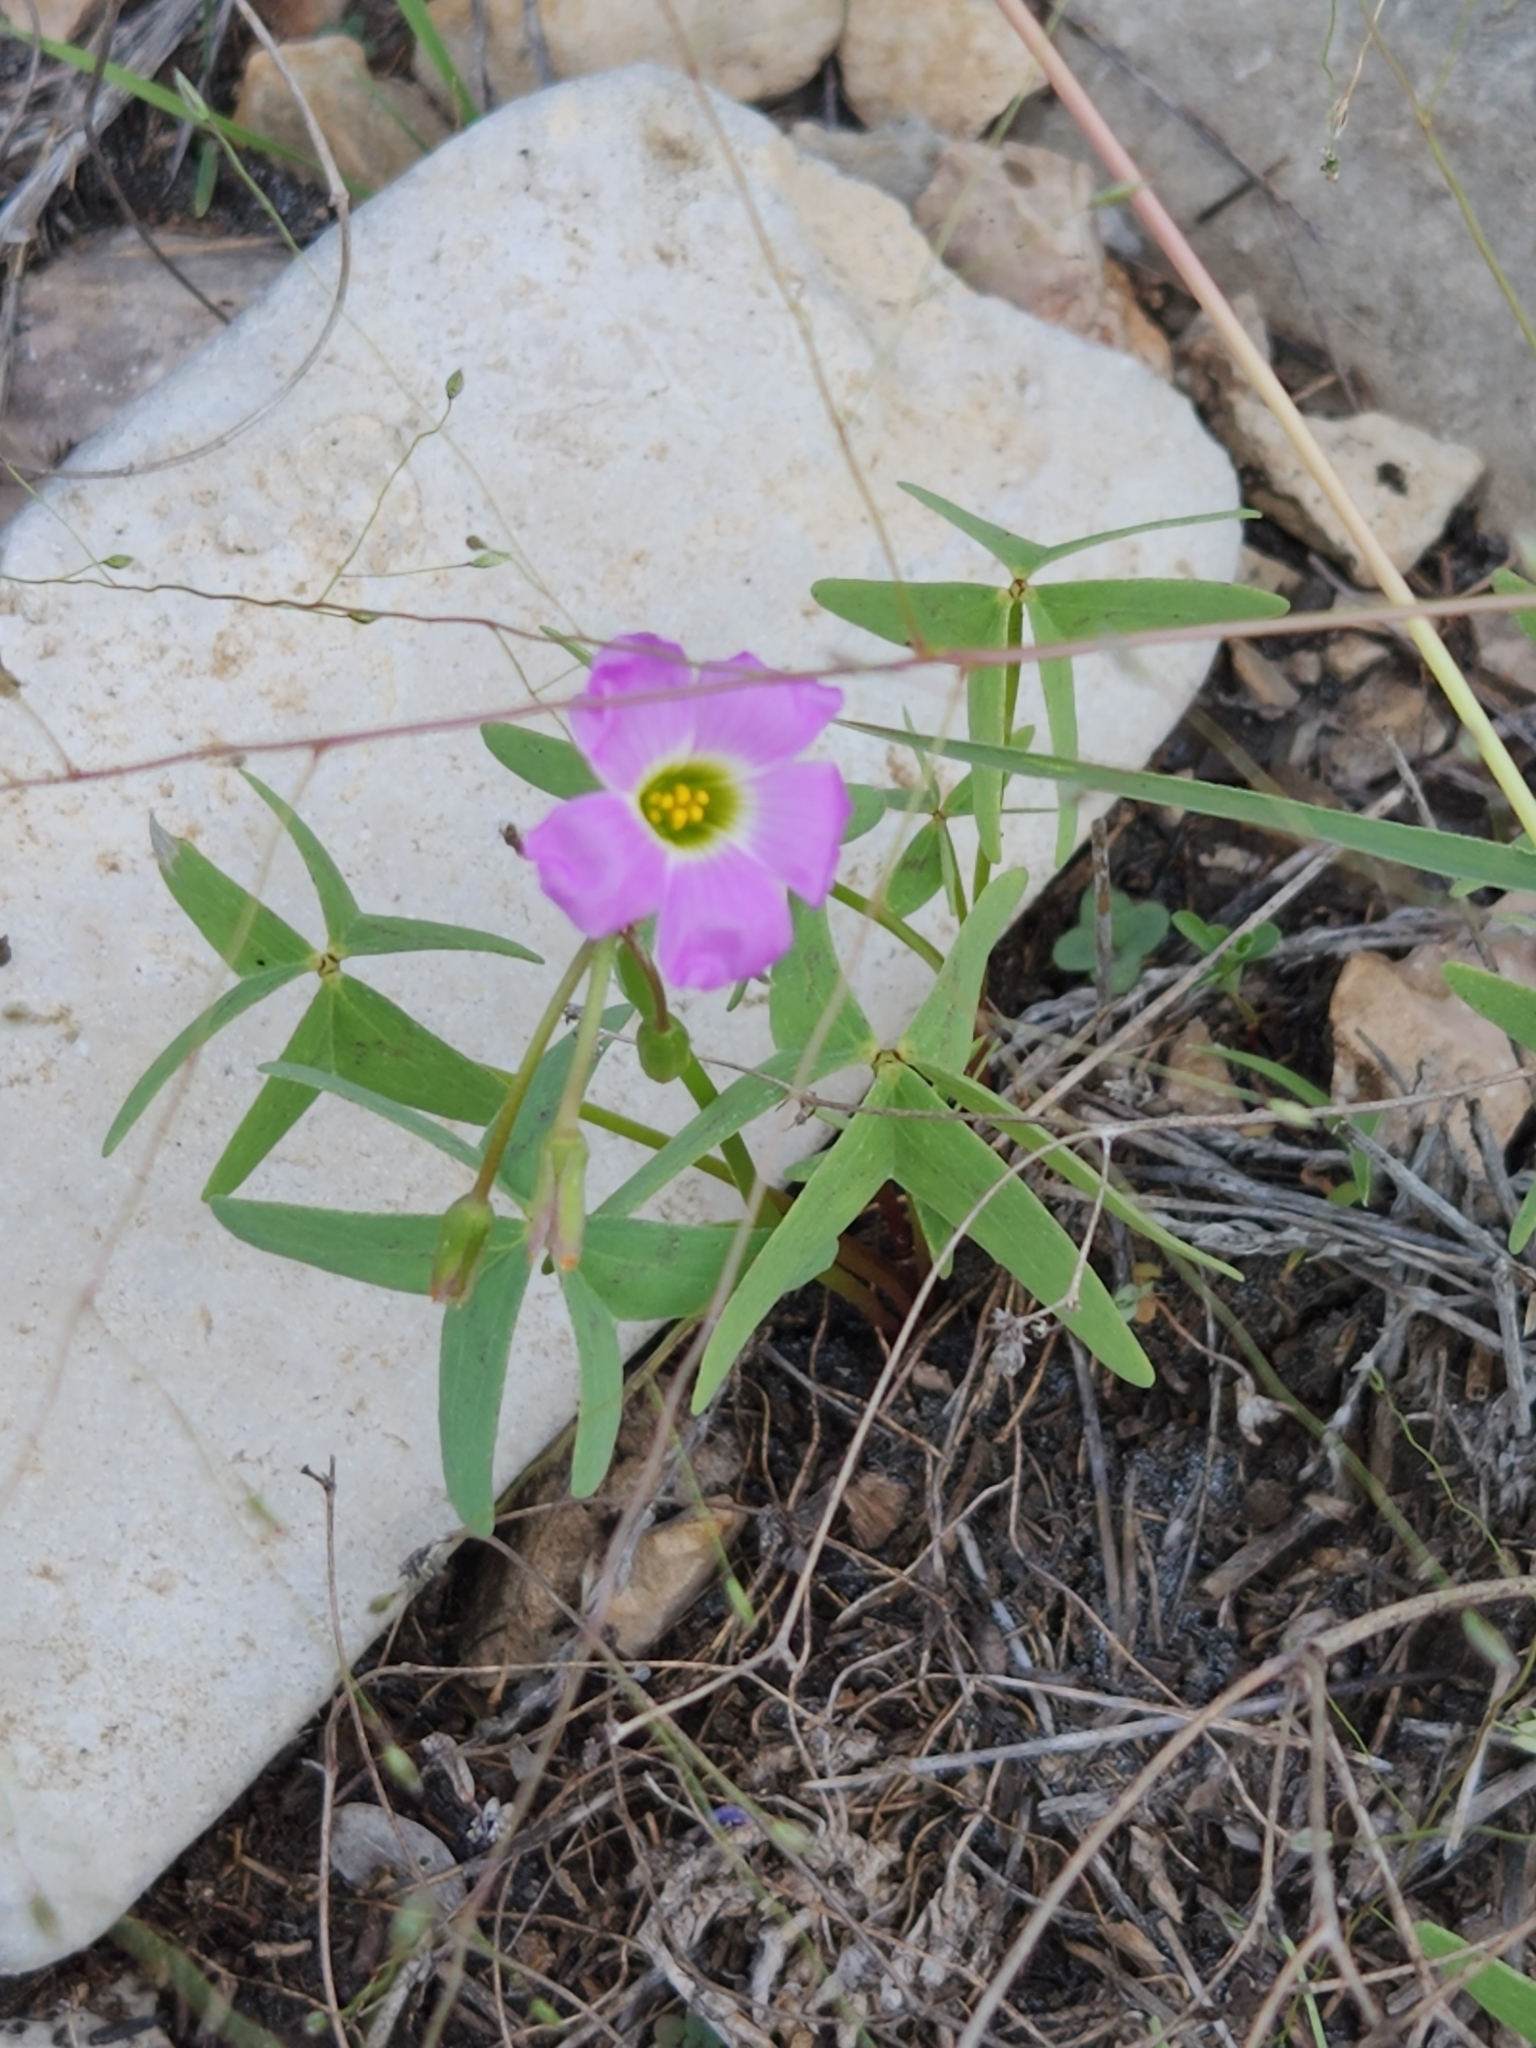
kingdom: Plantae
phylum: Tracheophyta
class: Magnoliopsida
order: Oxalidales
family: Oxalidaceae
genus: Oxalis
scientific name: Oxalis drummondii
